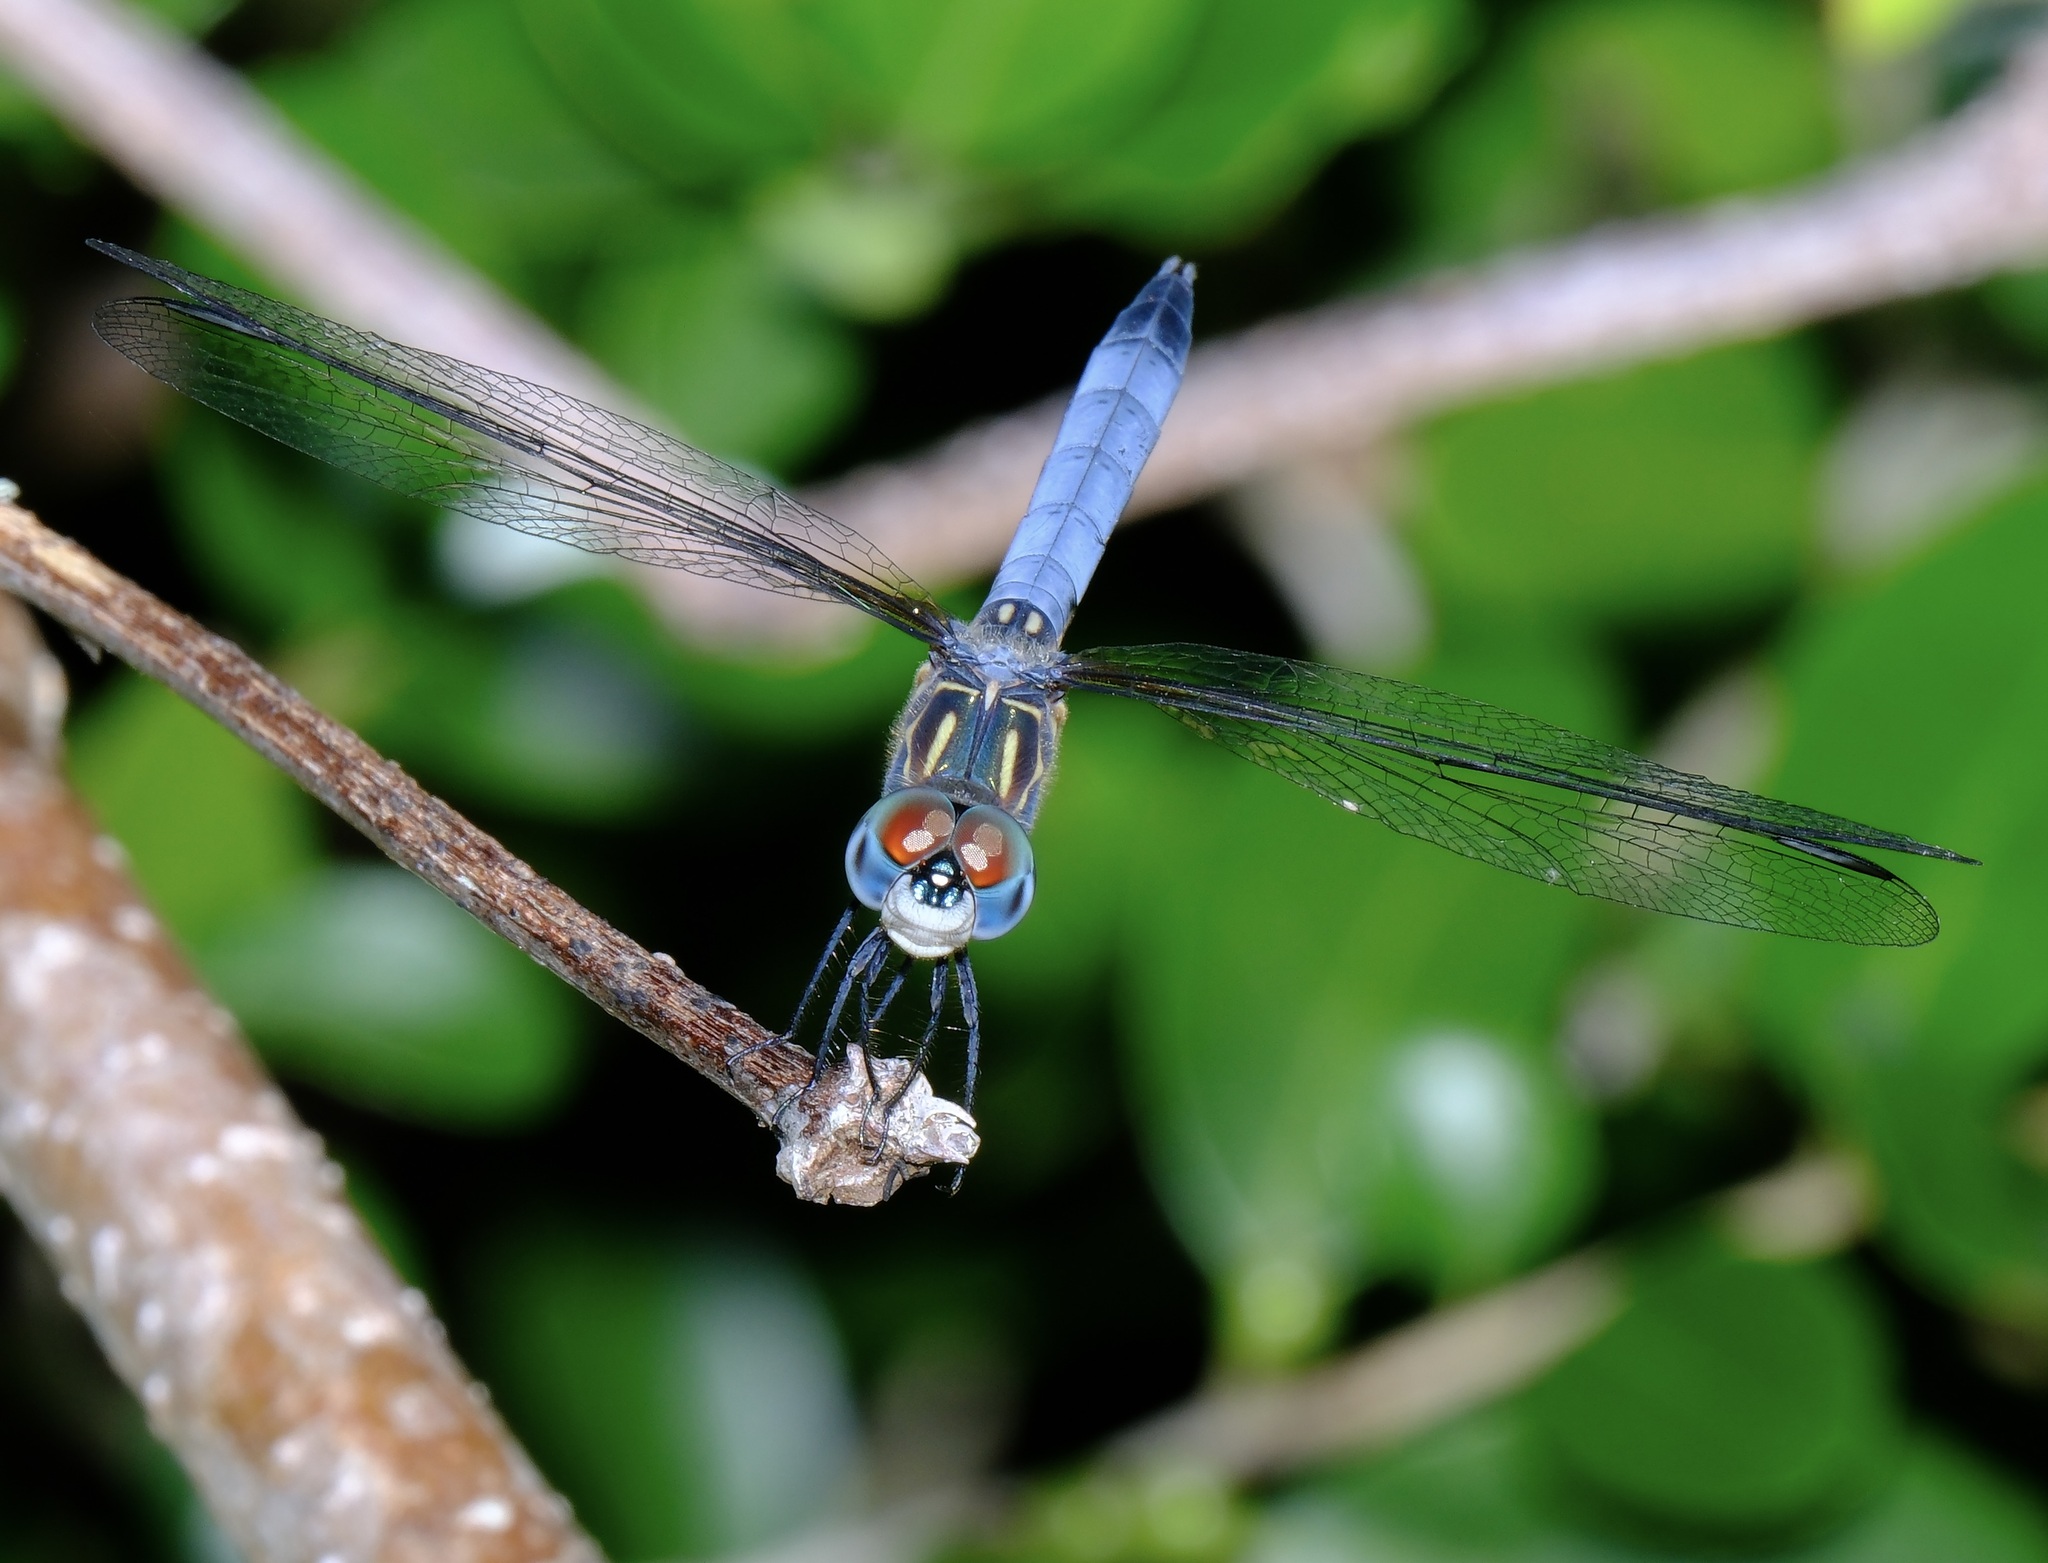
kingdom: Animalia
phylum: Arthropoda
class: Insecta
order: Odonata
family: Libellulidae
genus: Pachydiplax
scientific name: Pachydiplax longipennis
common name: Blue dasher
